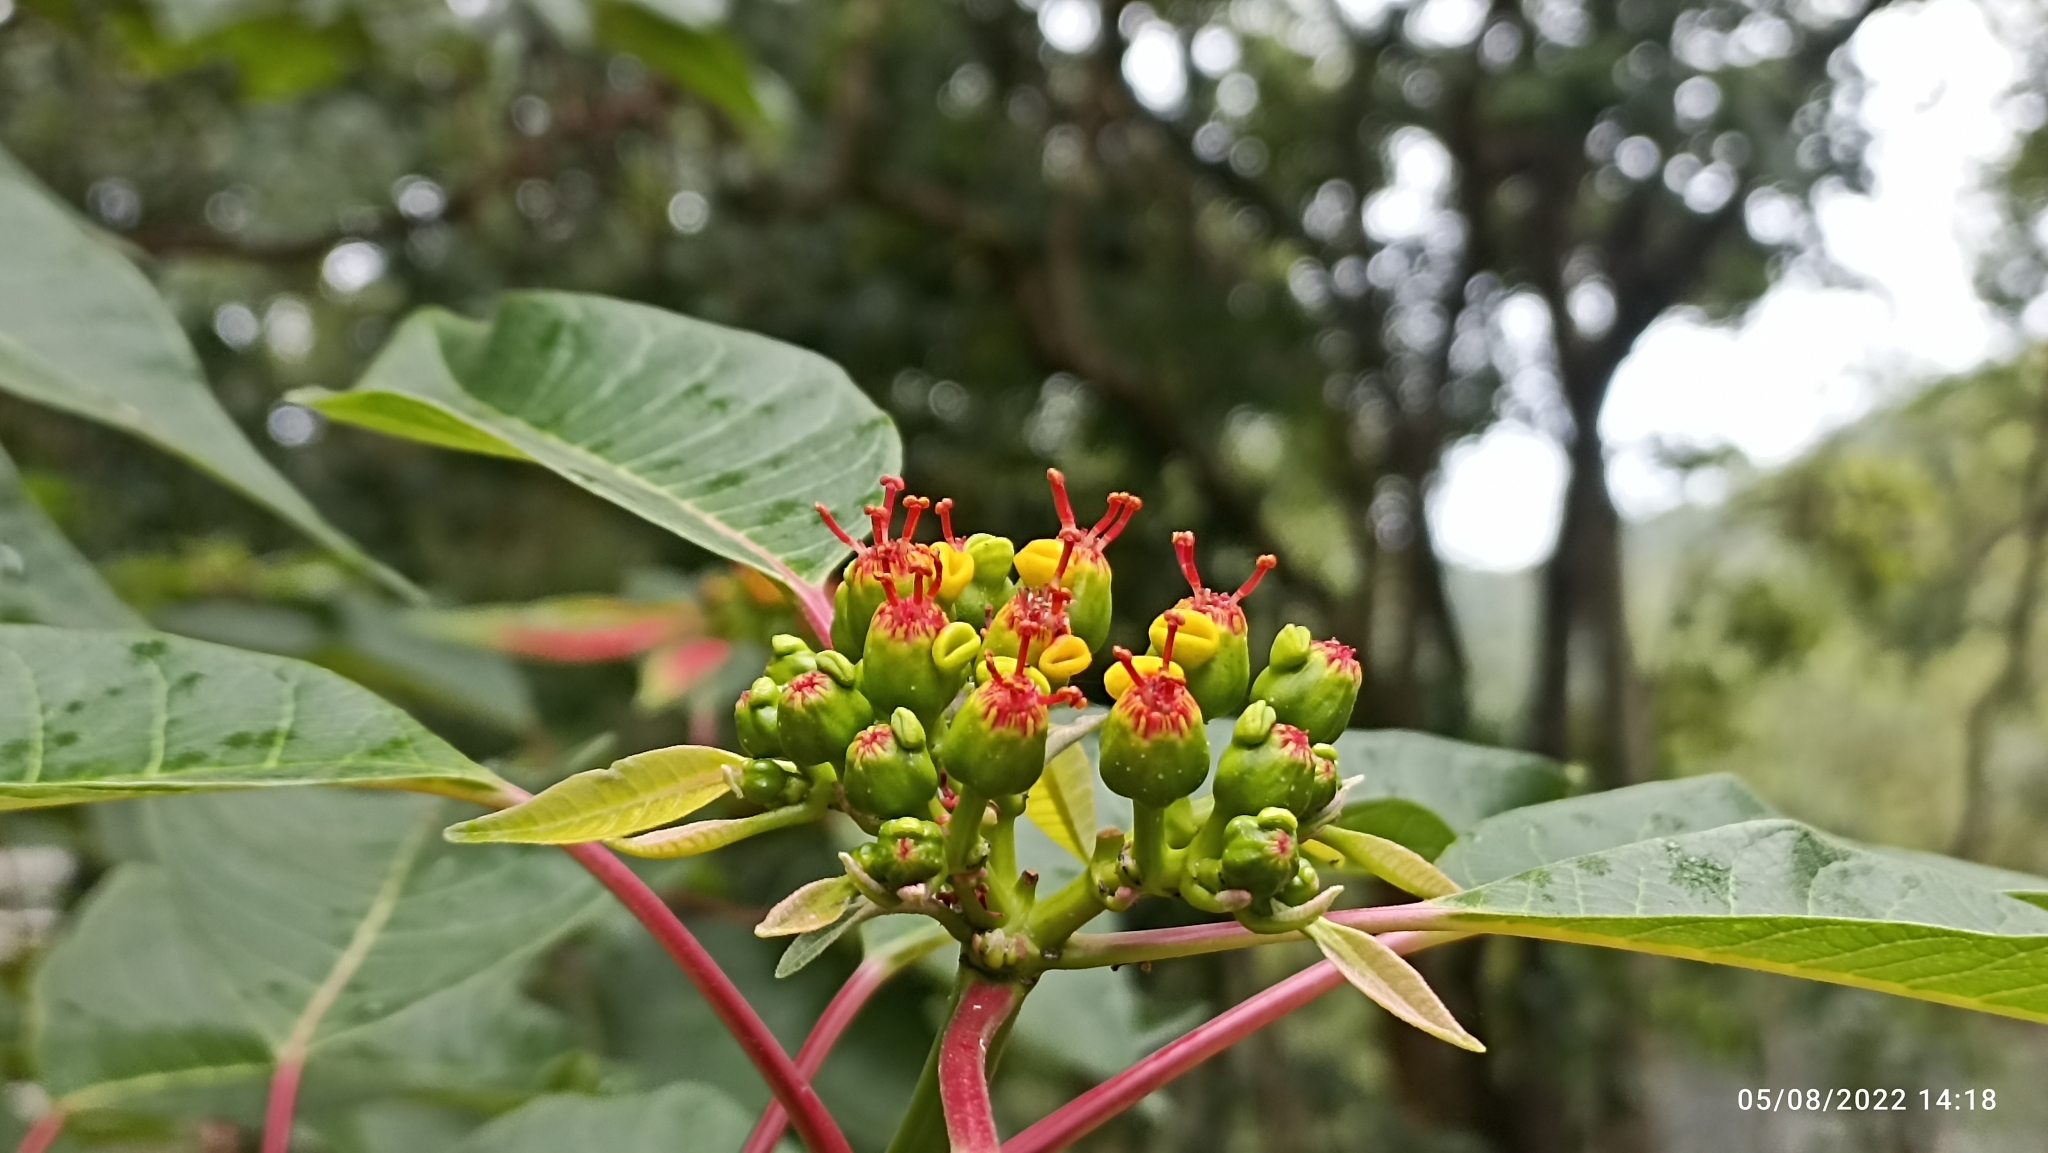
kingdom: Plantae
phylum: Tracheophyta
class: Magnoliopsida
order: Malpighiales
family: Euphorbiaceae
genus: Euphorbia
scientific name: Euphorbia pulcherrima
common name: Christmas-flower
